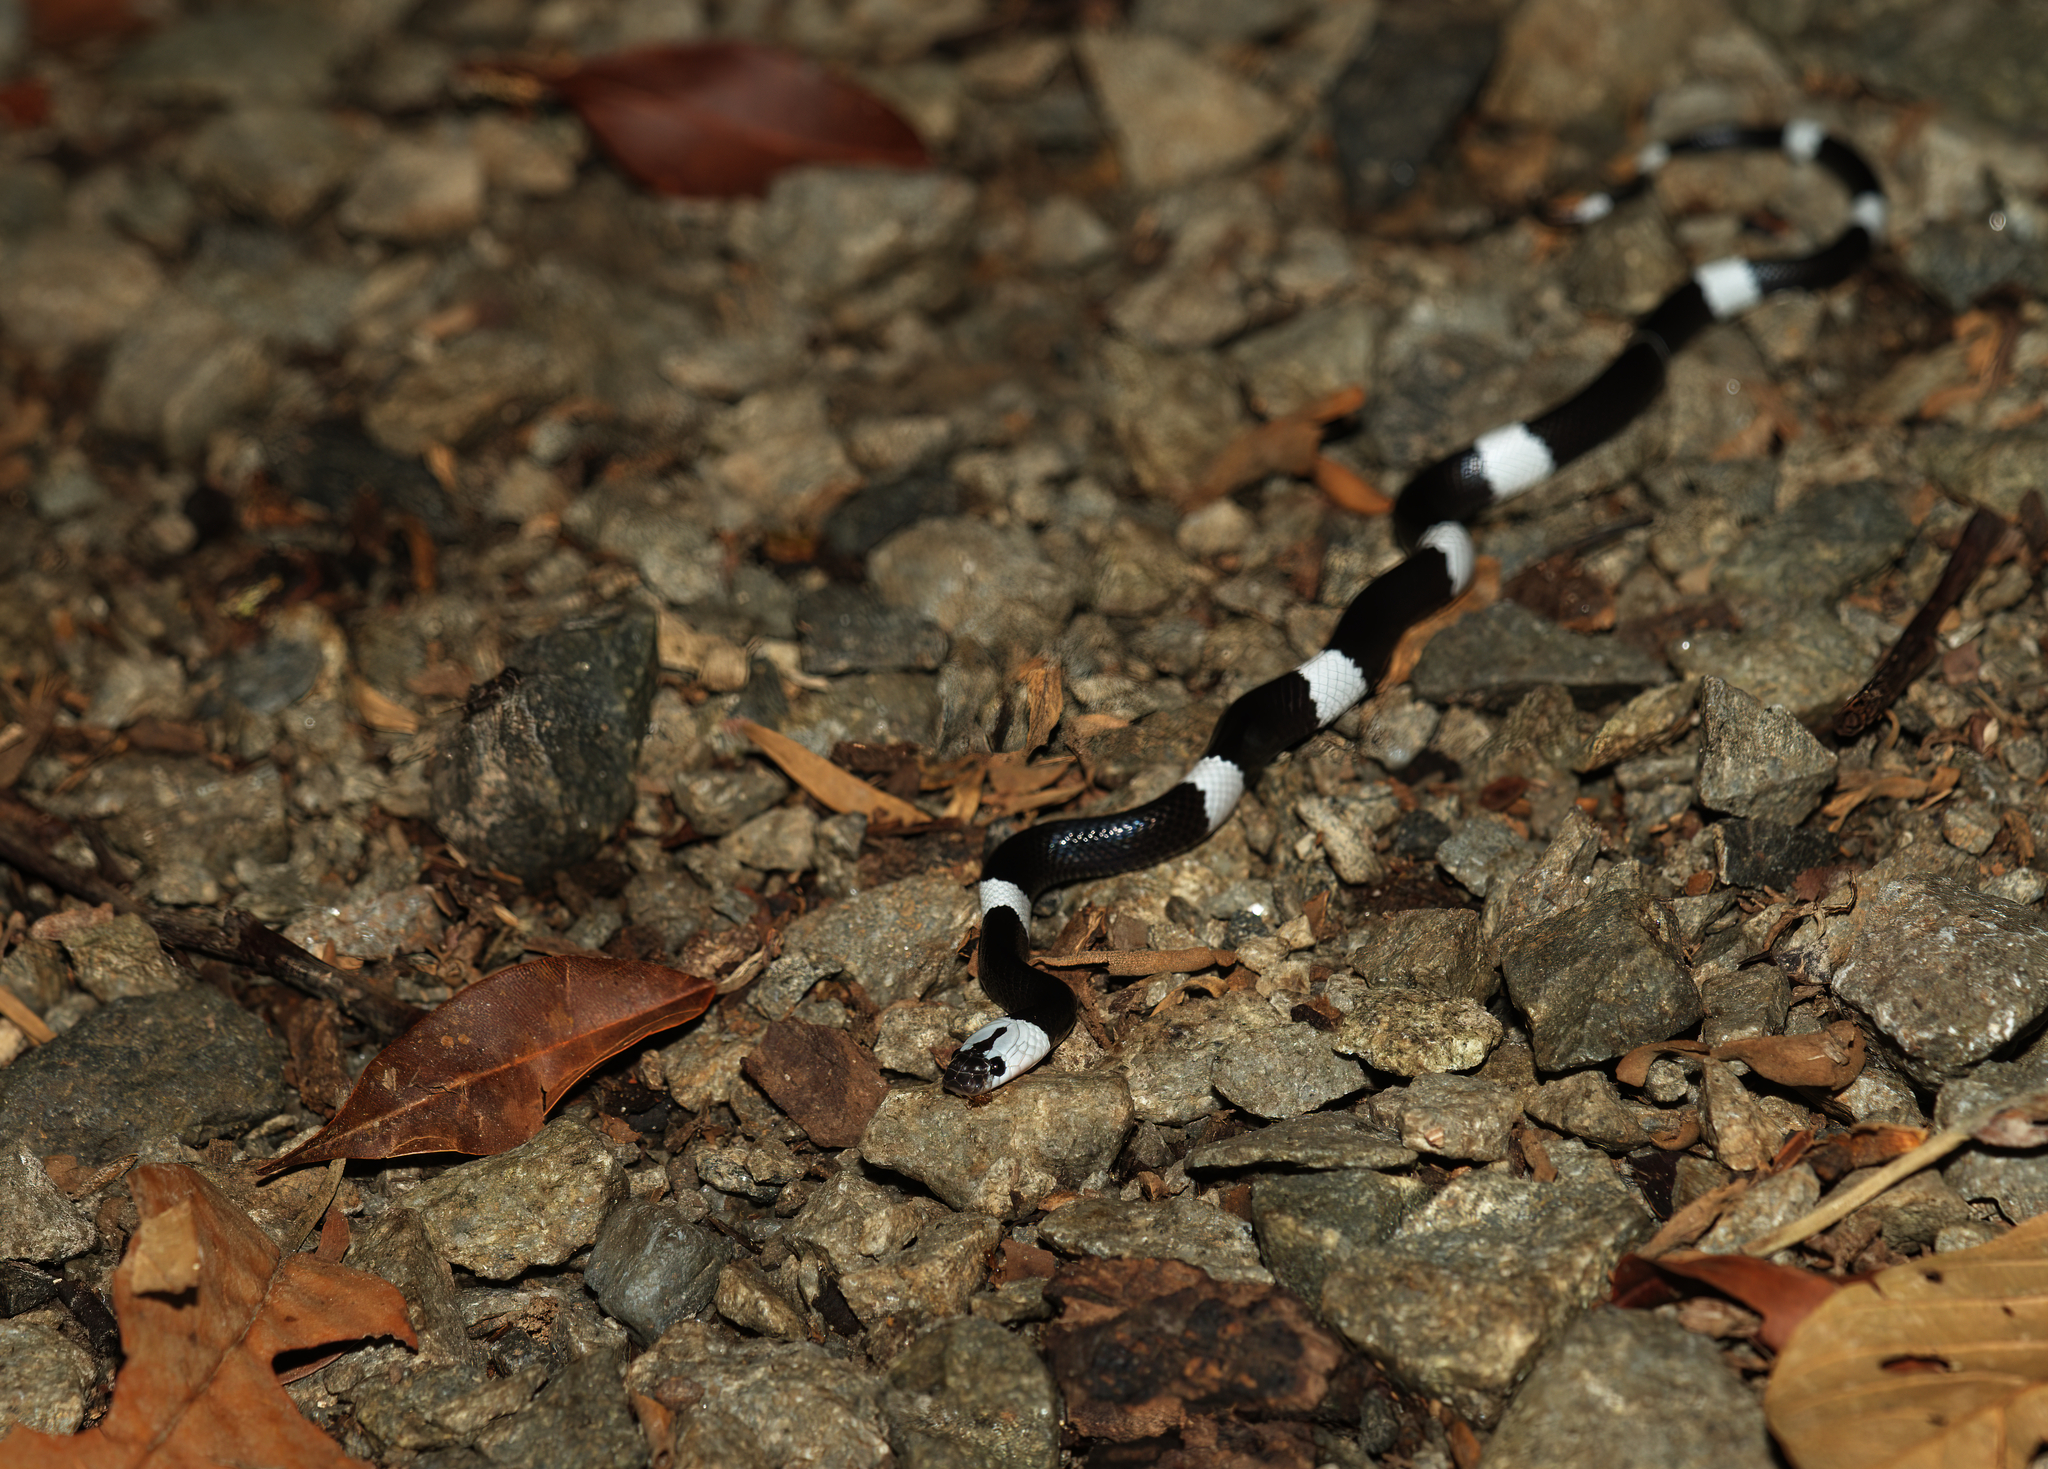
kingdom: Animalia
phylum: Chordata
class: Squamata
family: Colubridae
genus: Lycodon
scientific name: Lycodon subcinctus
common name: Malayan banded wolf snake
